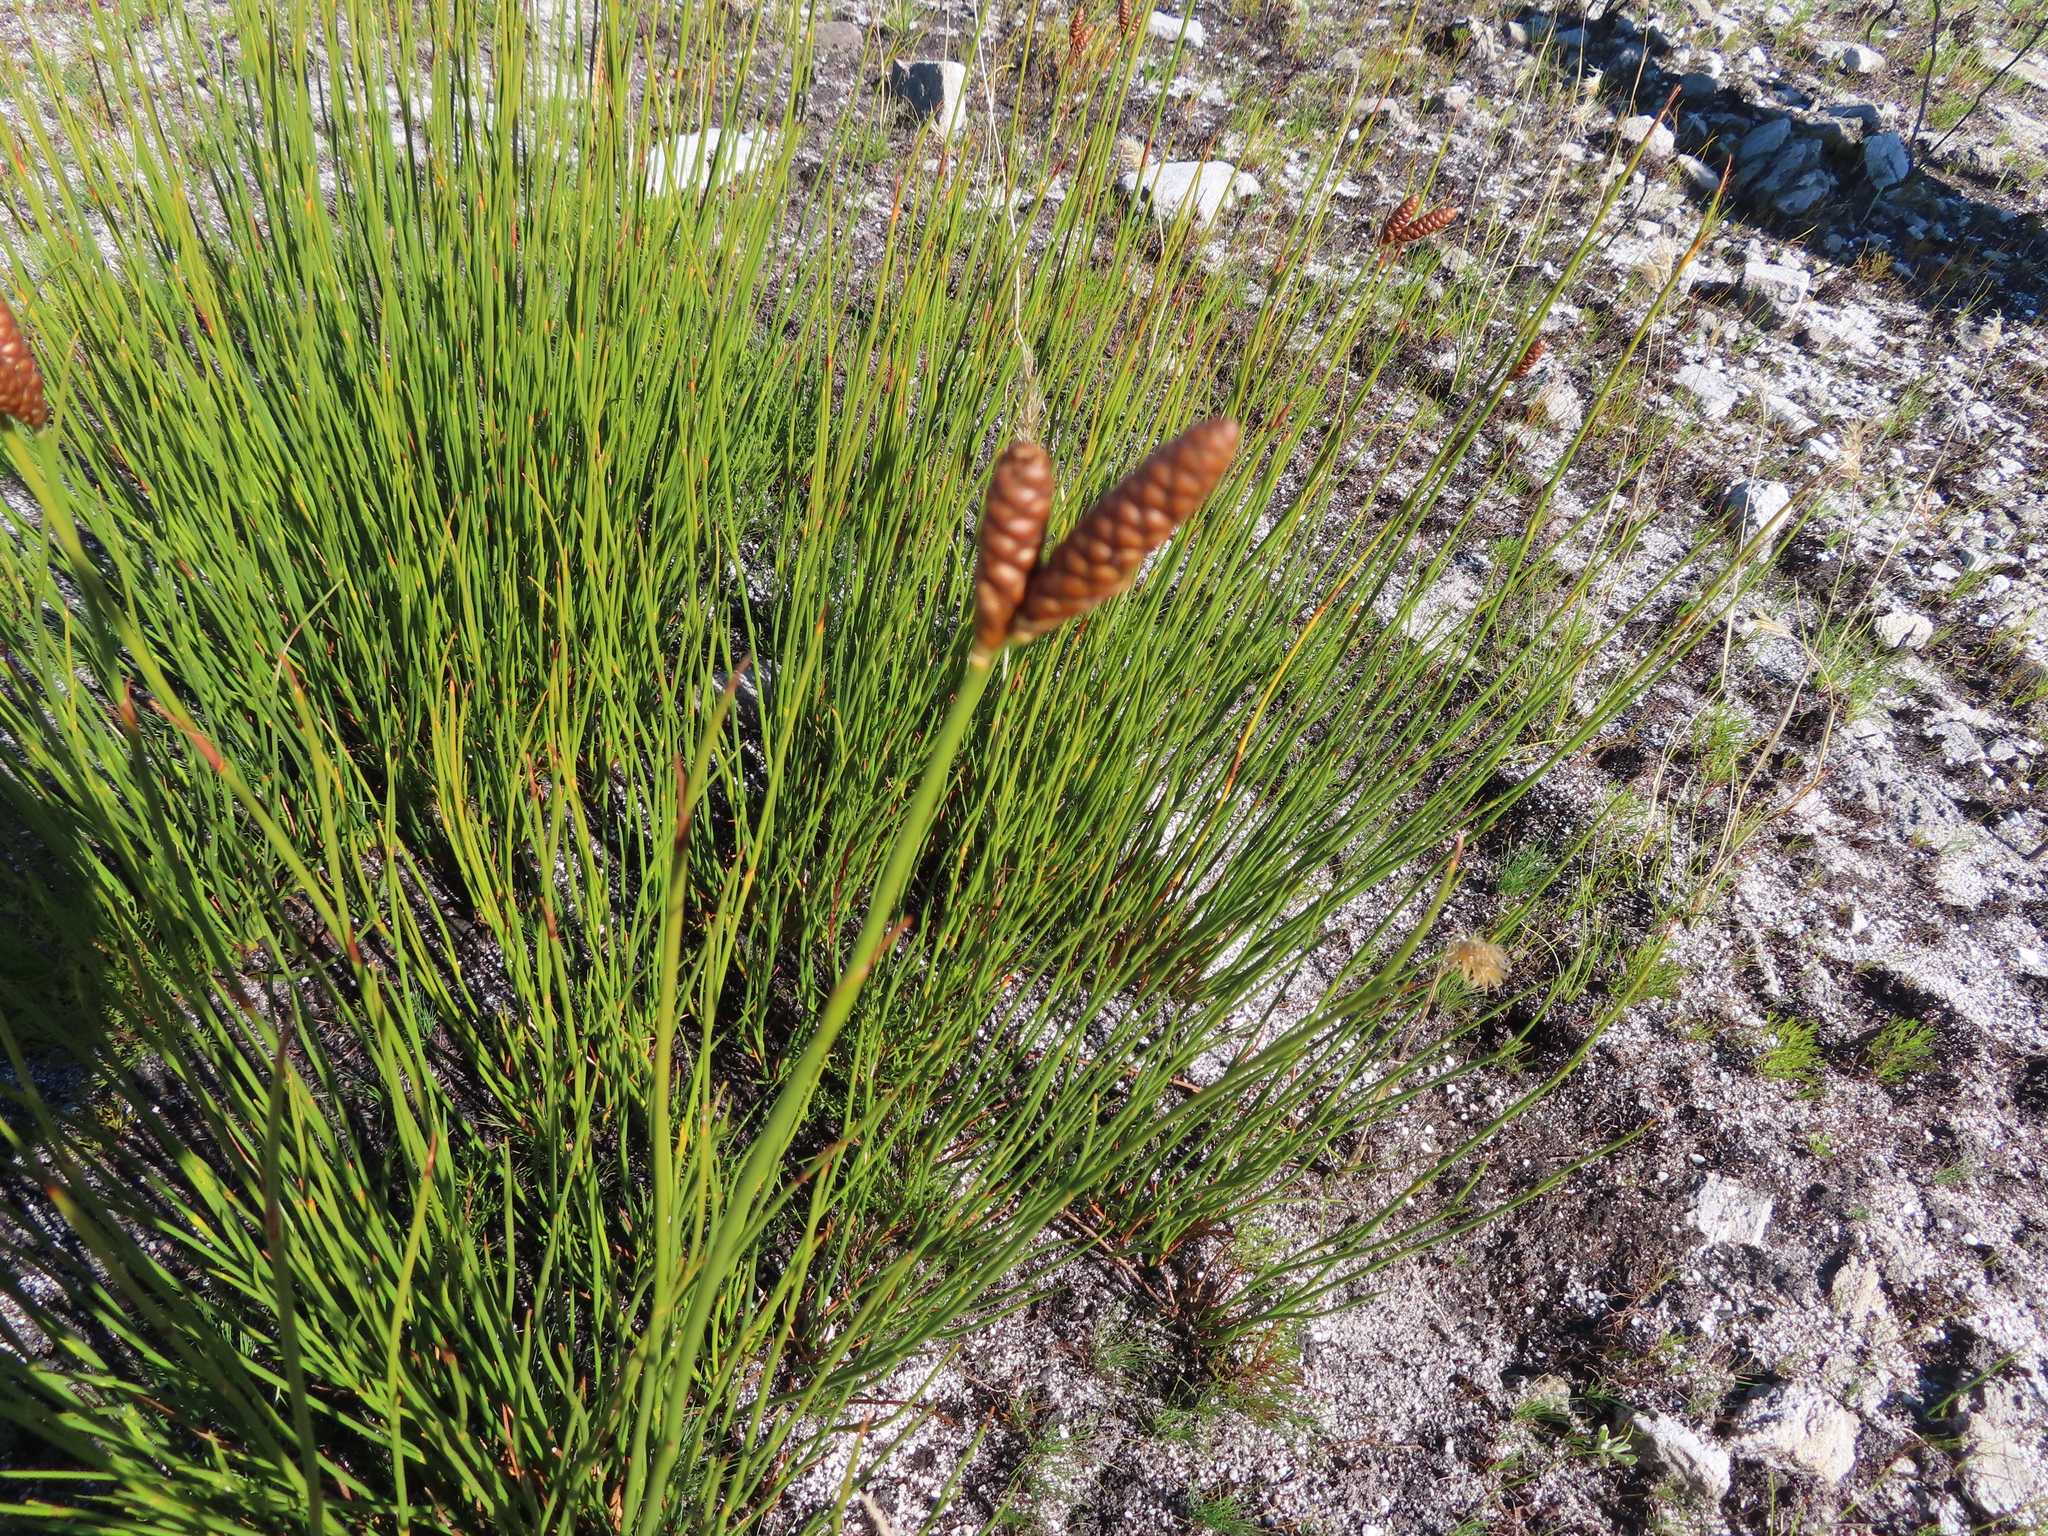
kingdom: Plantae
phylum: Tracheophyta
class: Liliopsida
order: Poales
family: Restionaceae
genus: Nevillea
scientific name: Nevillea obtusissimus
